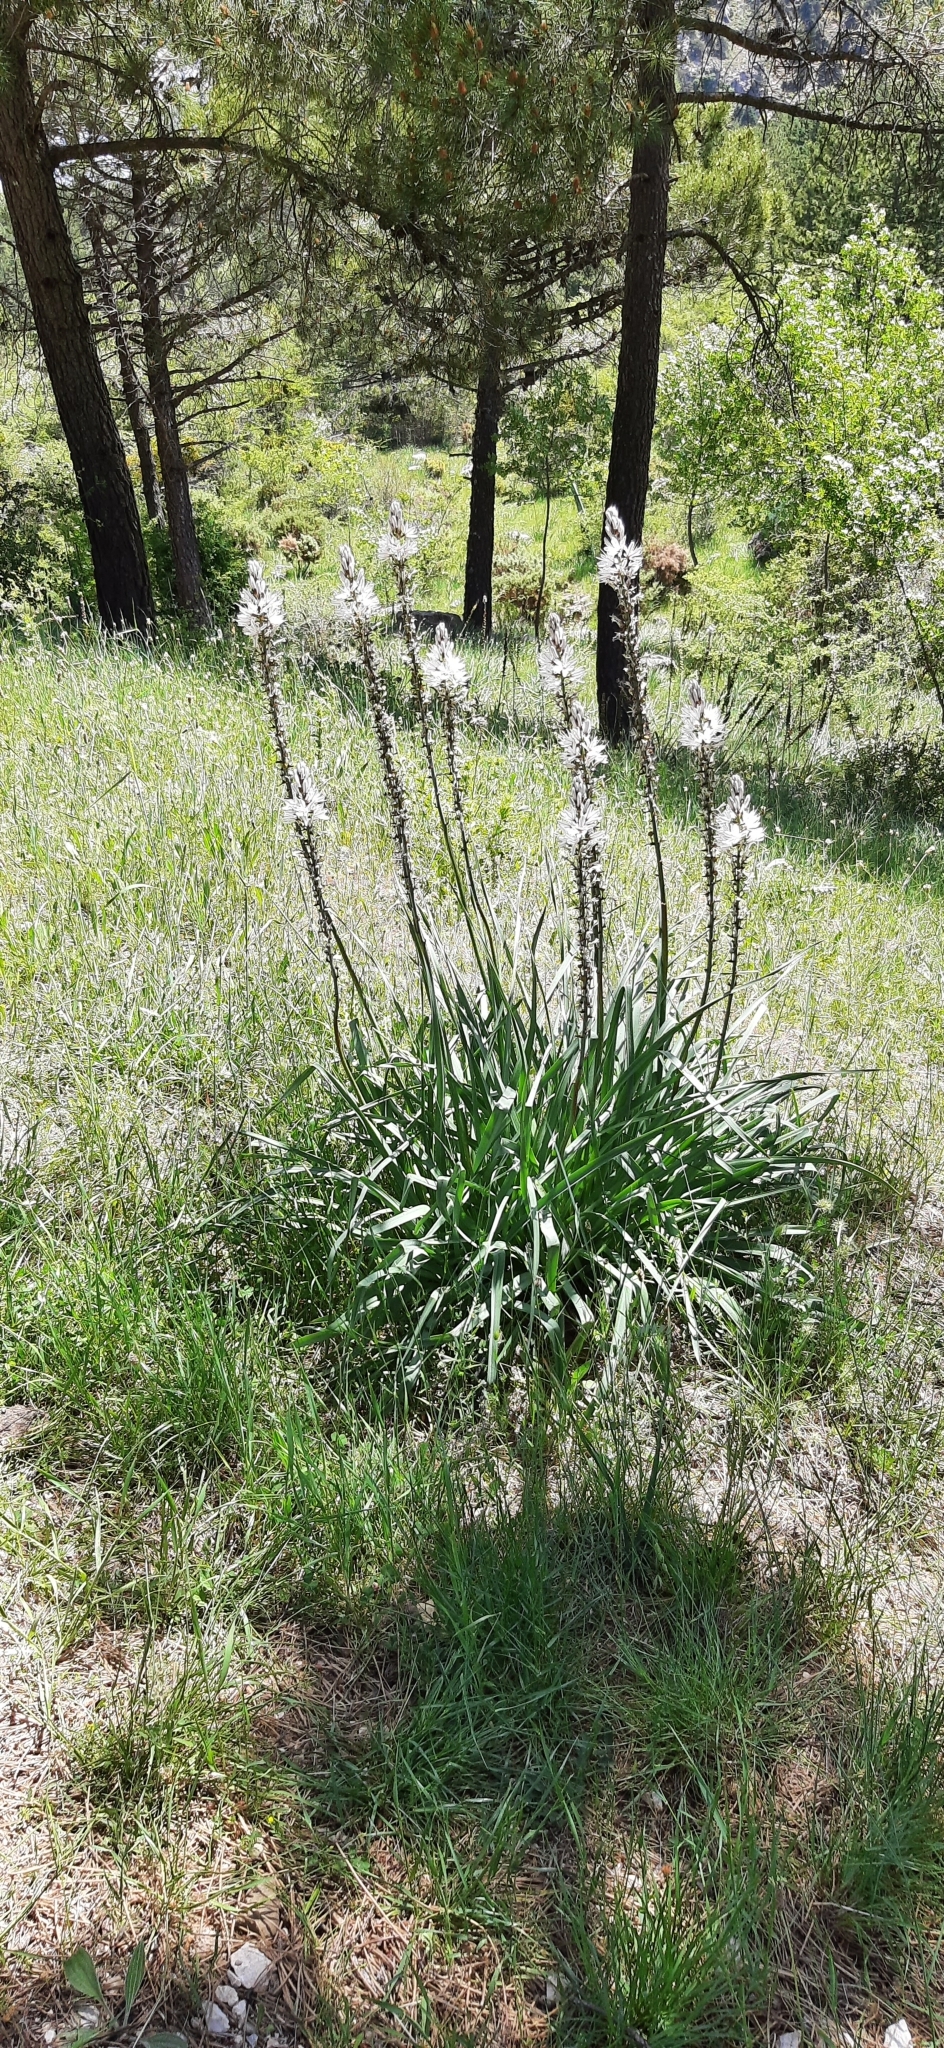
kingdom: Plantae
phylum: Tracheophyta
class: Liliopsida
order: Asparagales
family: Asphodelaceae
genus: Asphodelus
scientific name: Asphodelus albus
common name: White asphodel
